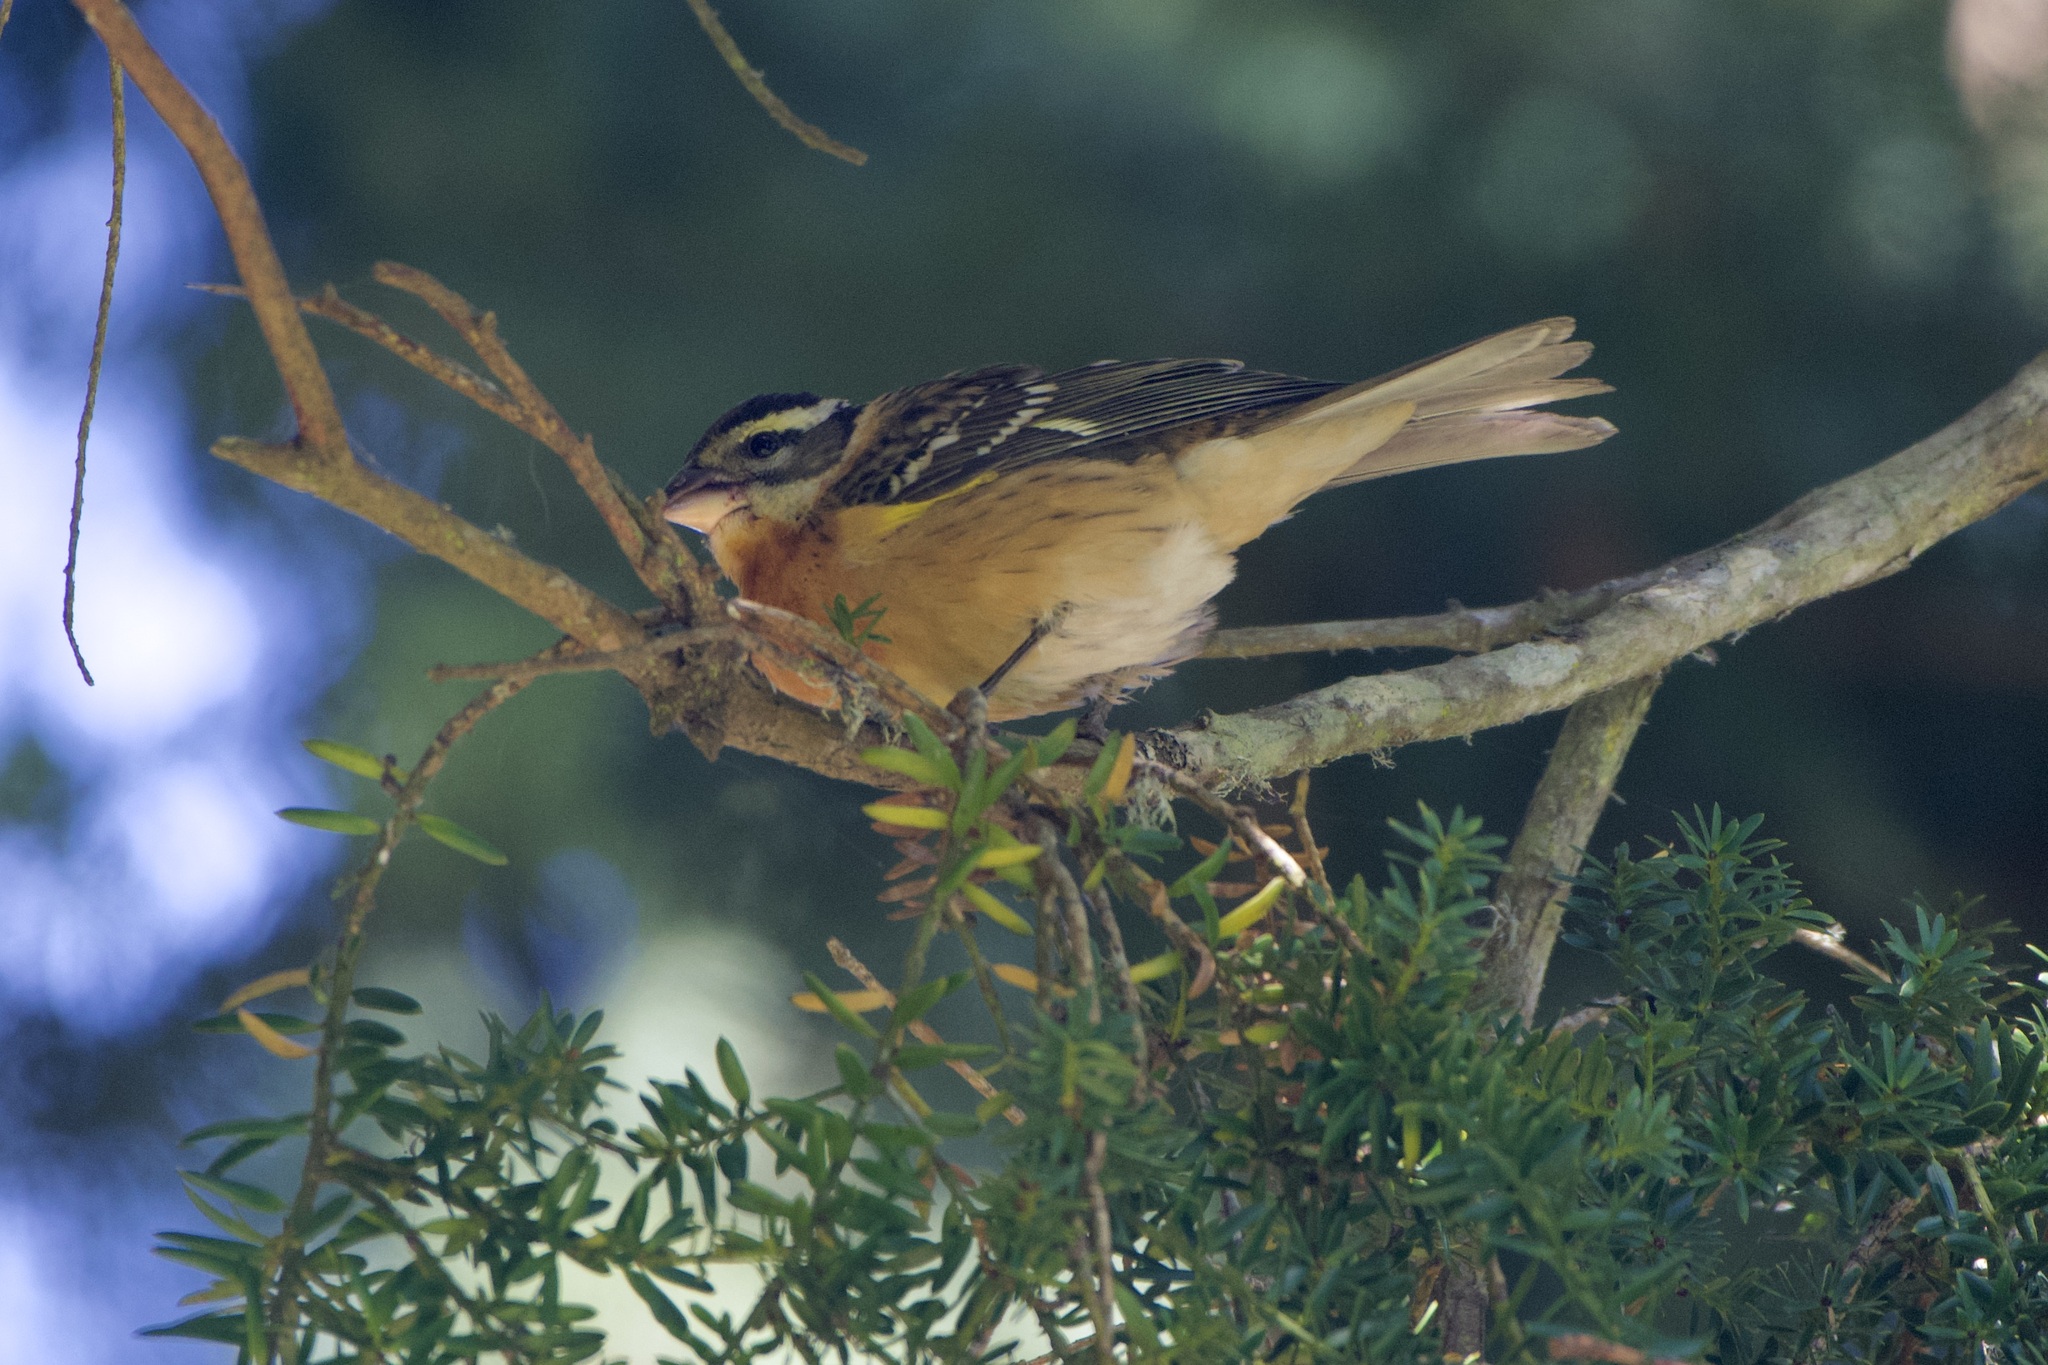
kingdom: Animalia
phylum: Chordata
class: Aves
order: Passeriformes
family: Cardinalidae
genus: Pheucticus
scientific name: Pheucticus melanocephalus
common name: Black-headed grosbeak
